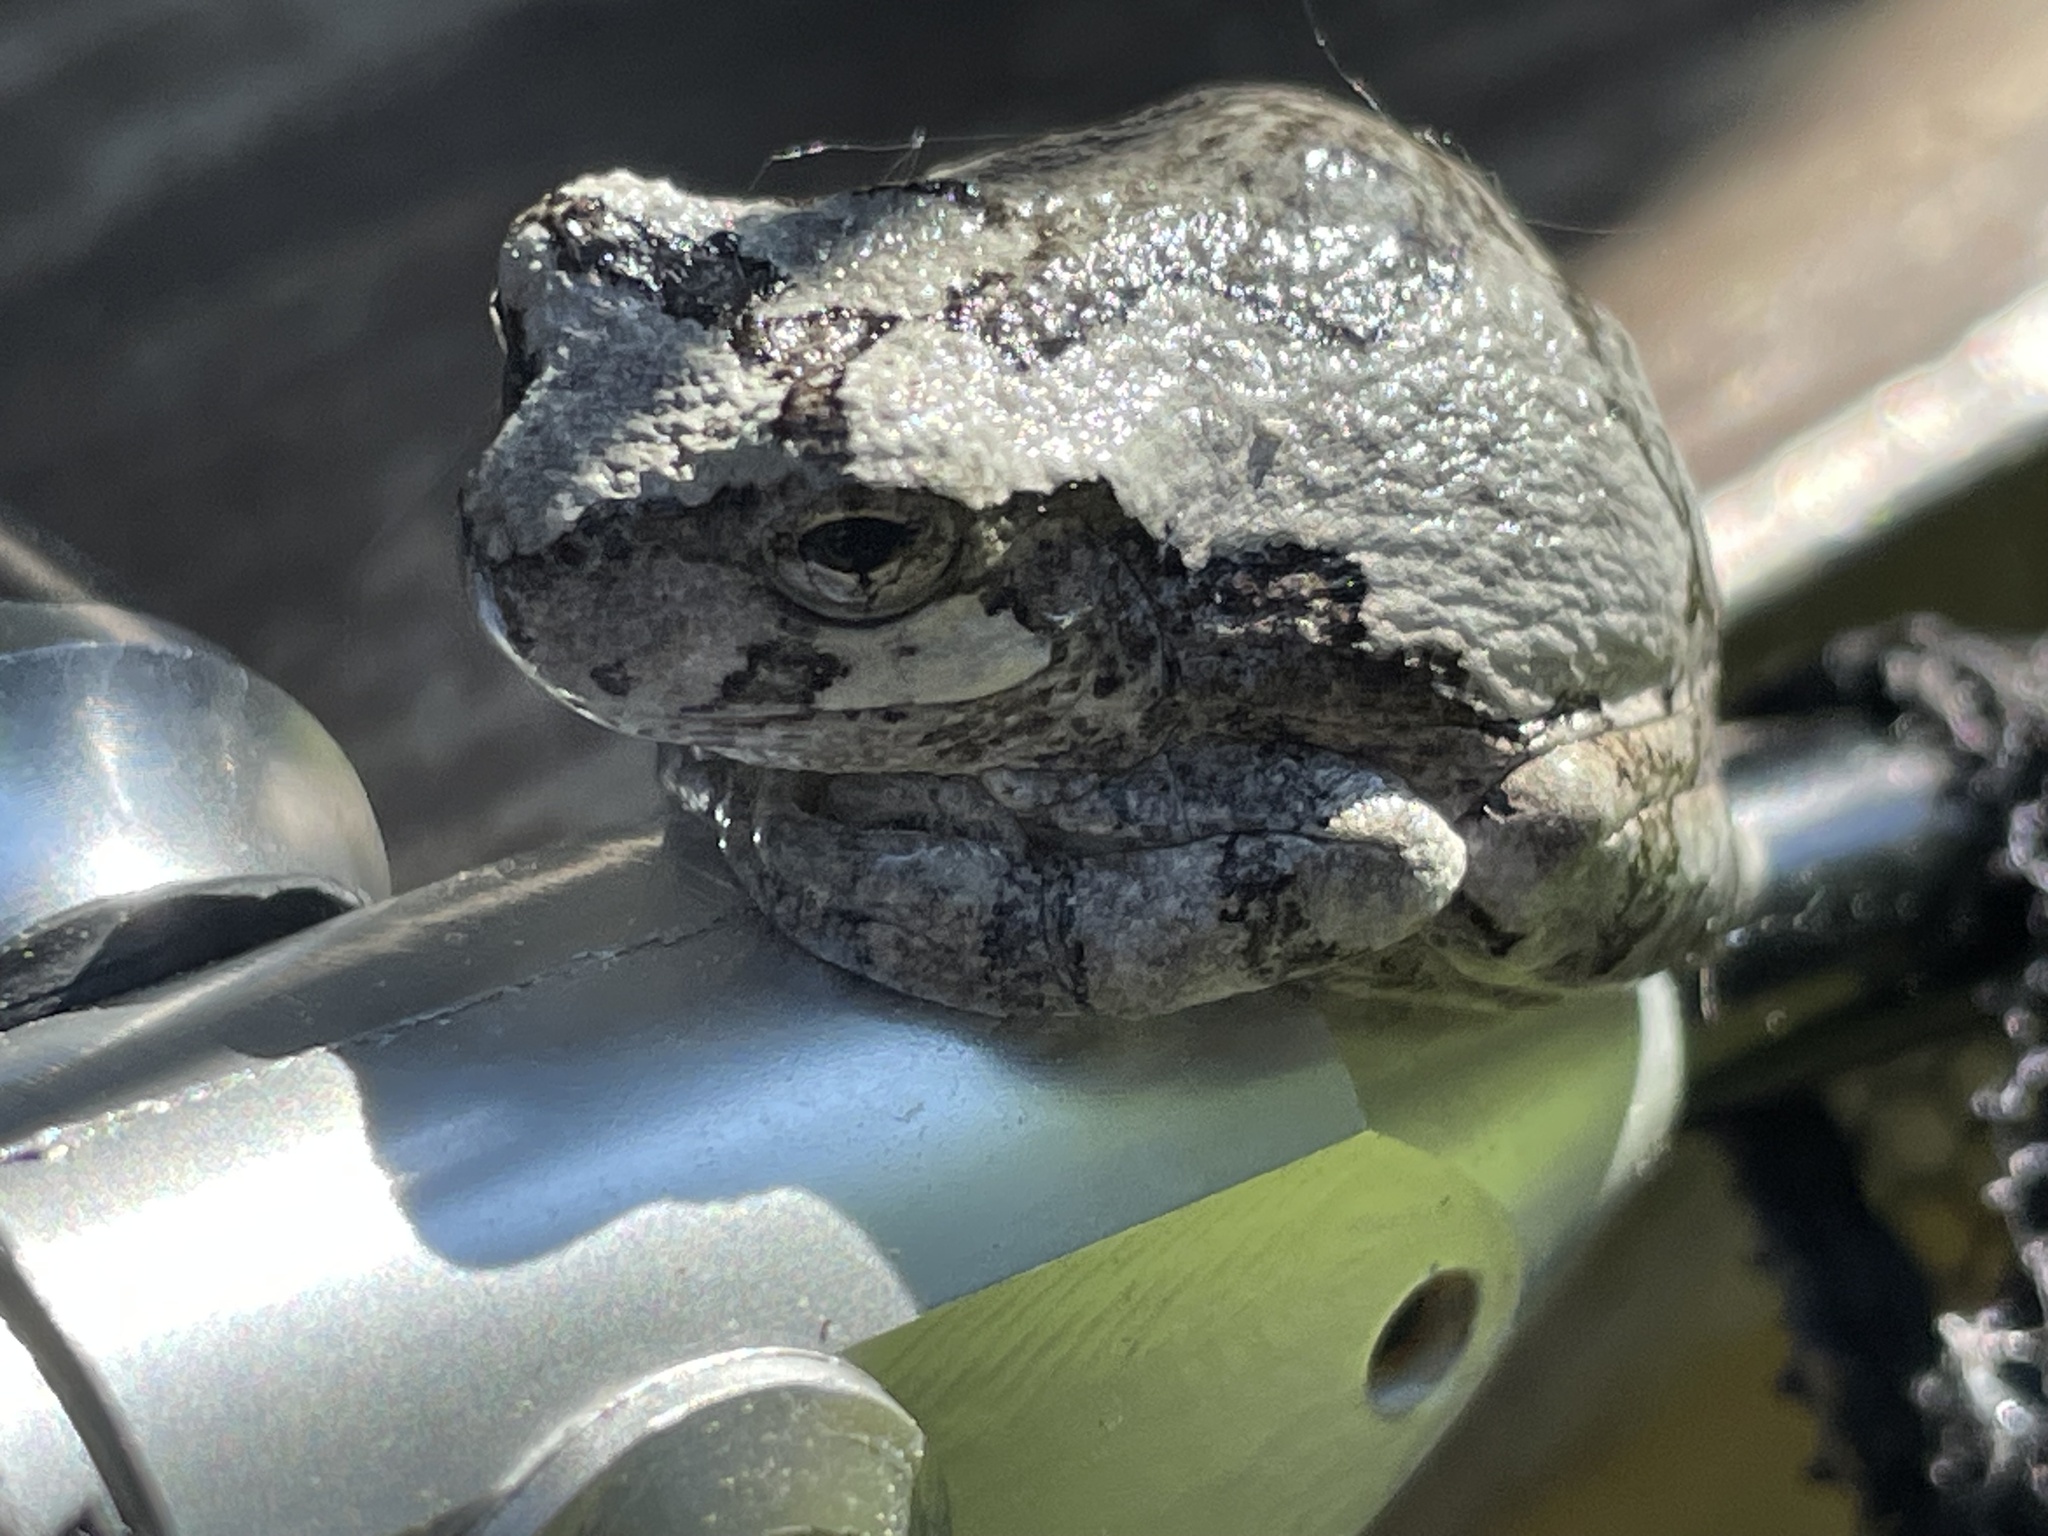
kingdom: Animalia
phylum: Chordata
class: Amphibia
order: Anura
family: Hylidae
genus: Hyla
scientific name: Hyla
